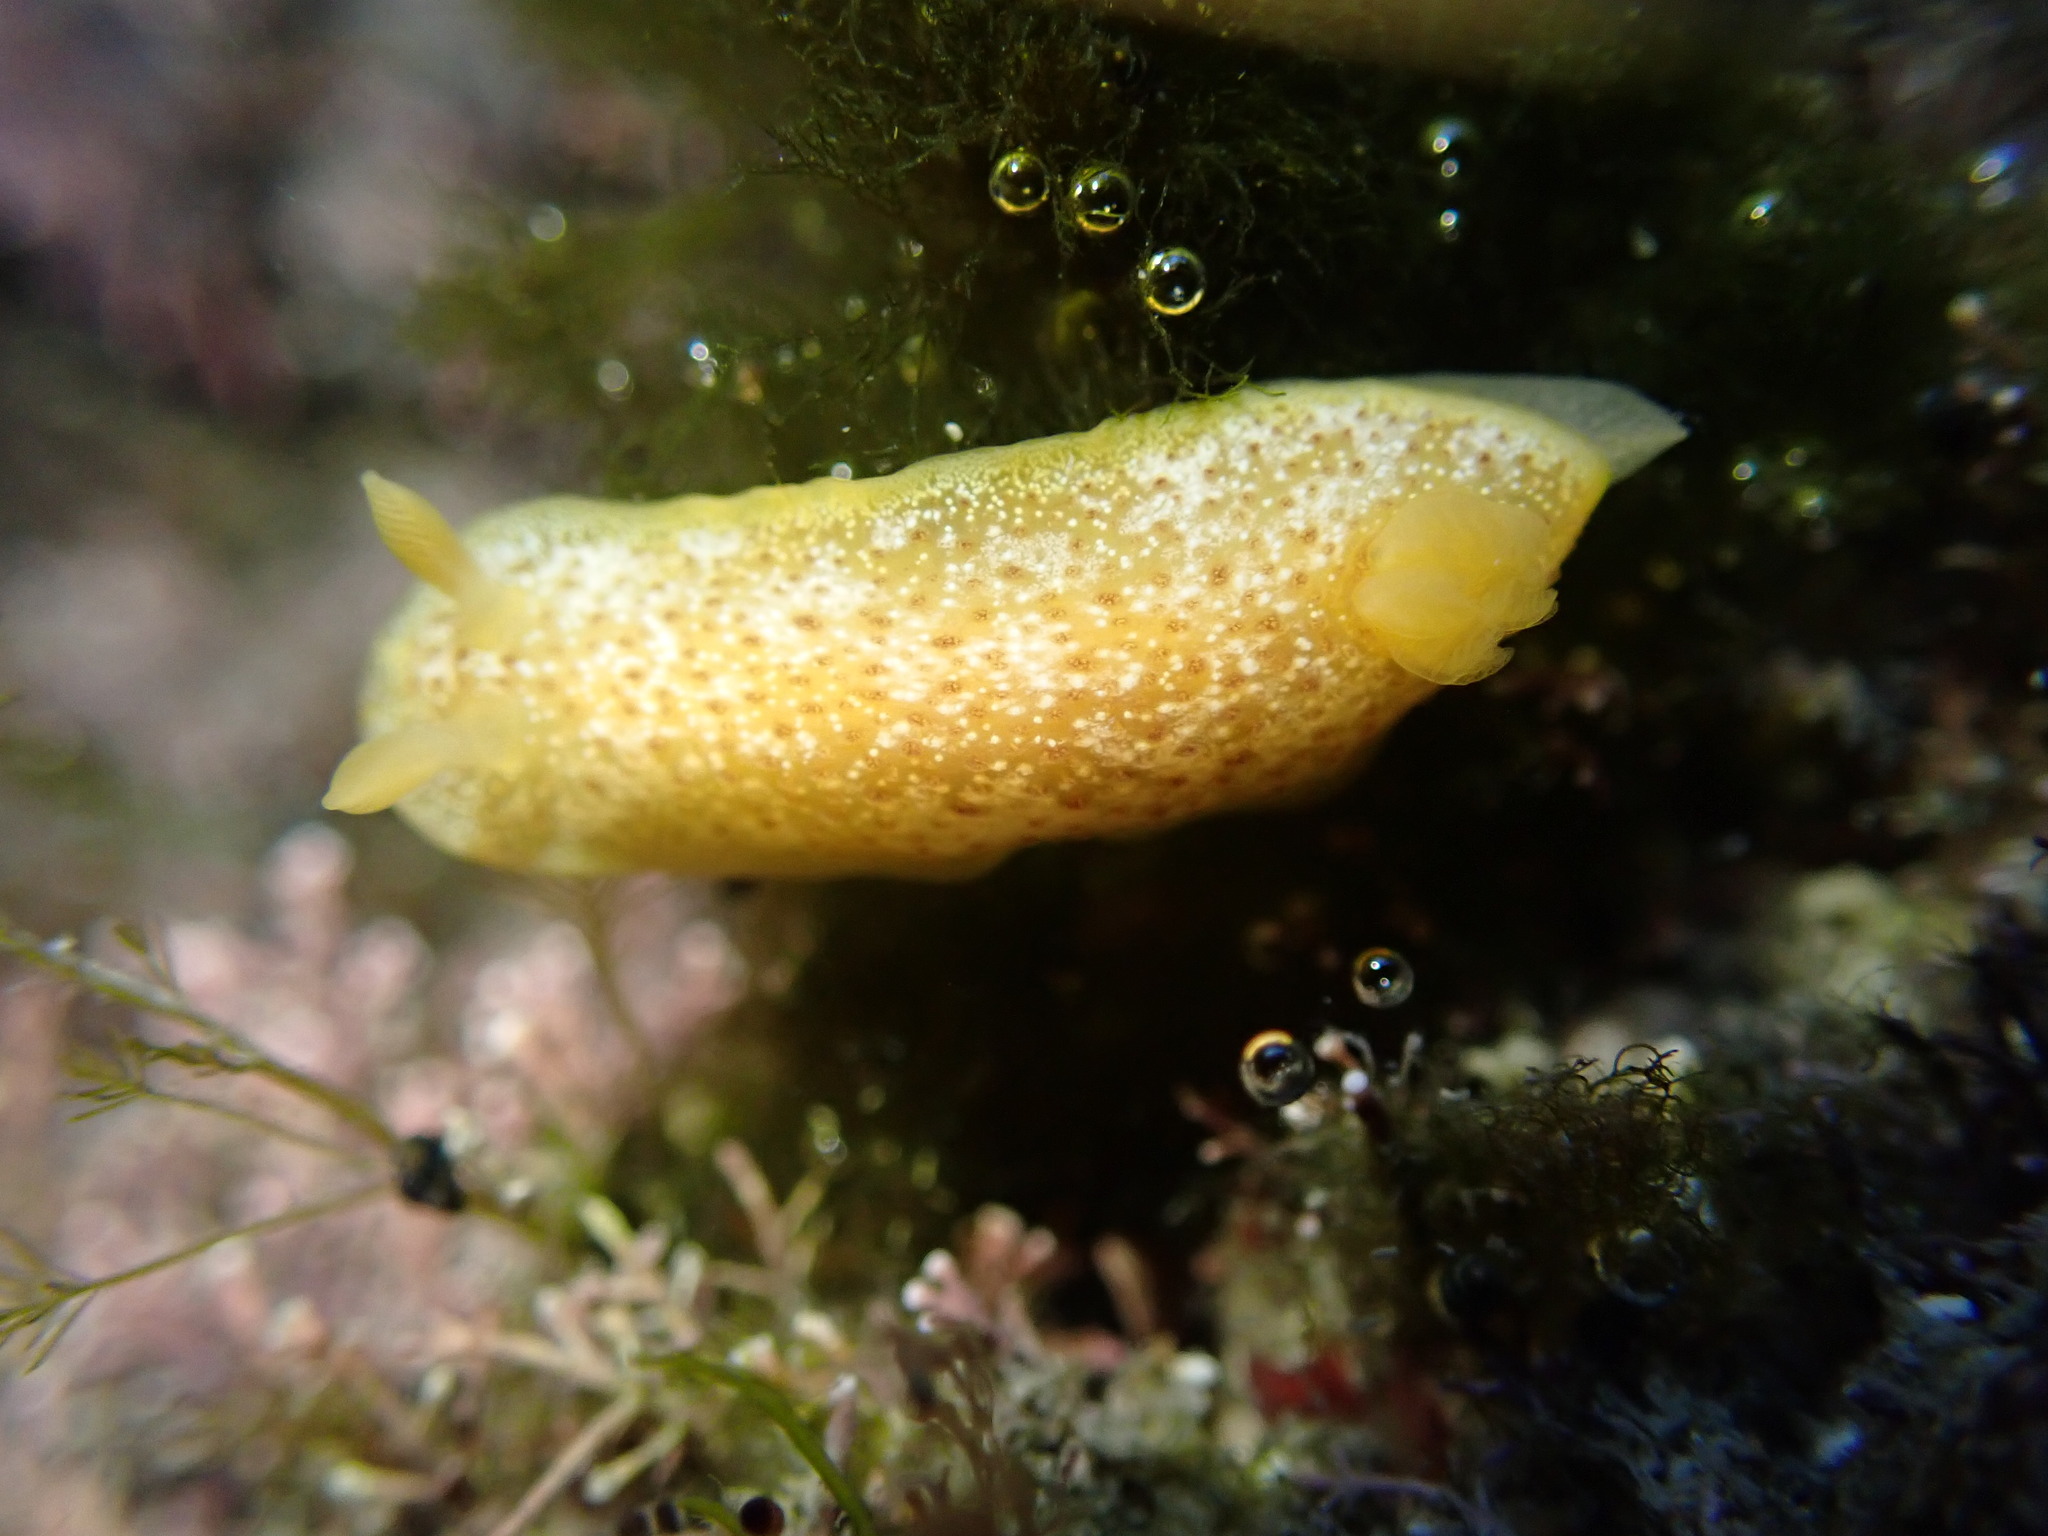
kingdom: Animalia
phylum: Mollusca
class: Gastropoda
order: Nudibranchia
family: Dendrodorididae
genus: Dendrodoris
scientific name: Dendrodoris citrina
